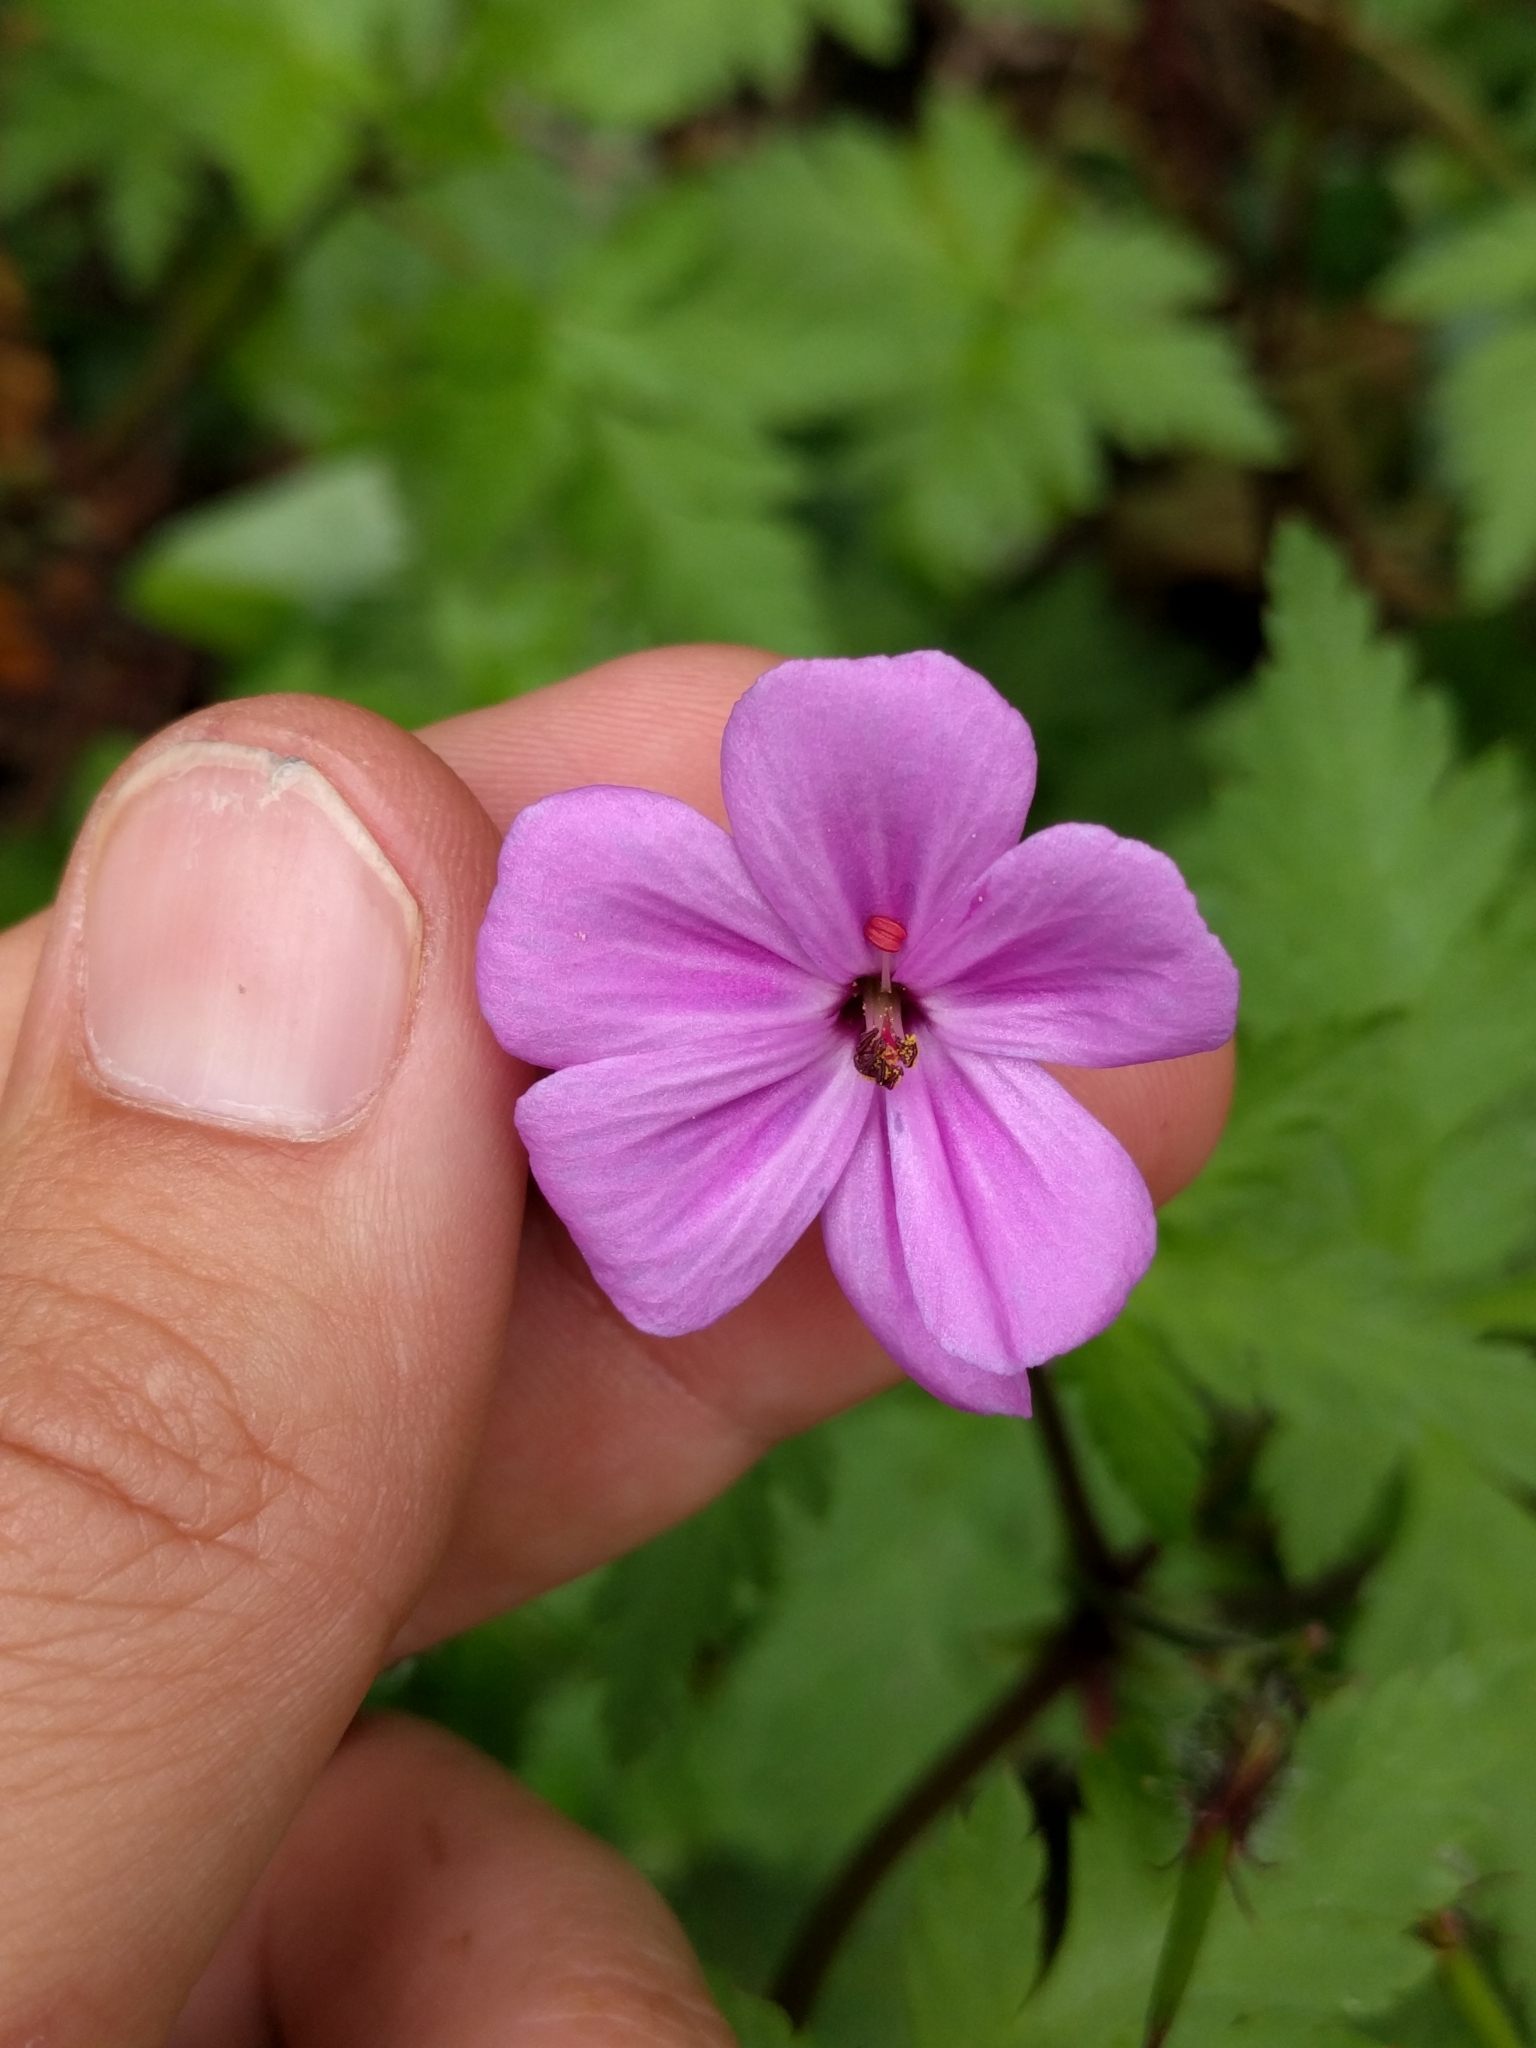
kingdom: Plantae
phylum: Tracheophyta
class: Magnoliopsida
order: Geraniales
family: Geraniaceae
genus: Geranium
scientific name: Geranium yeoi
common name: Greater herb robert
